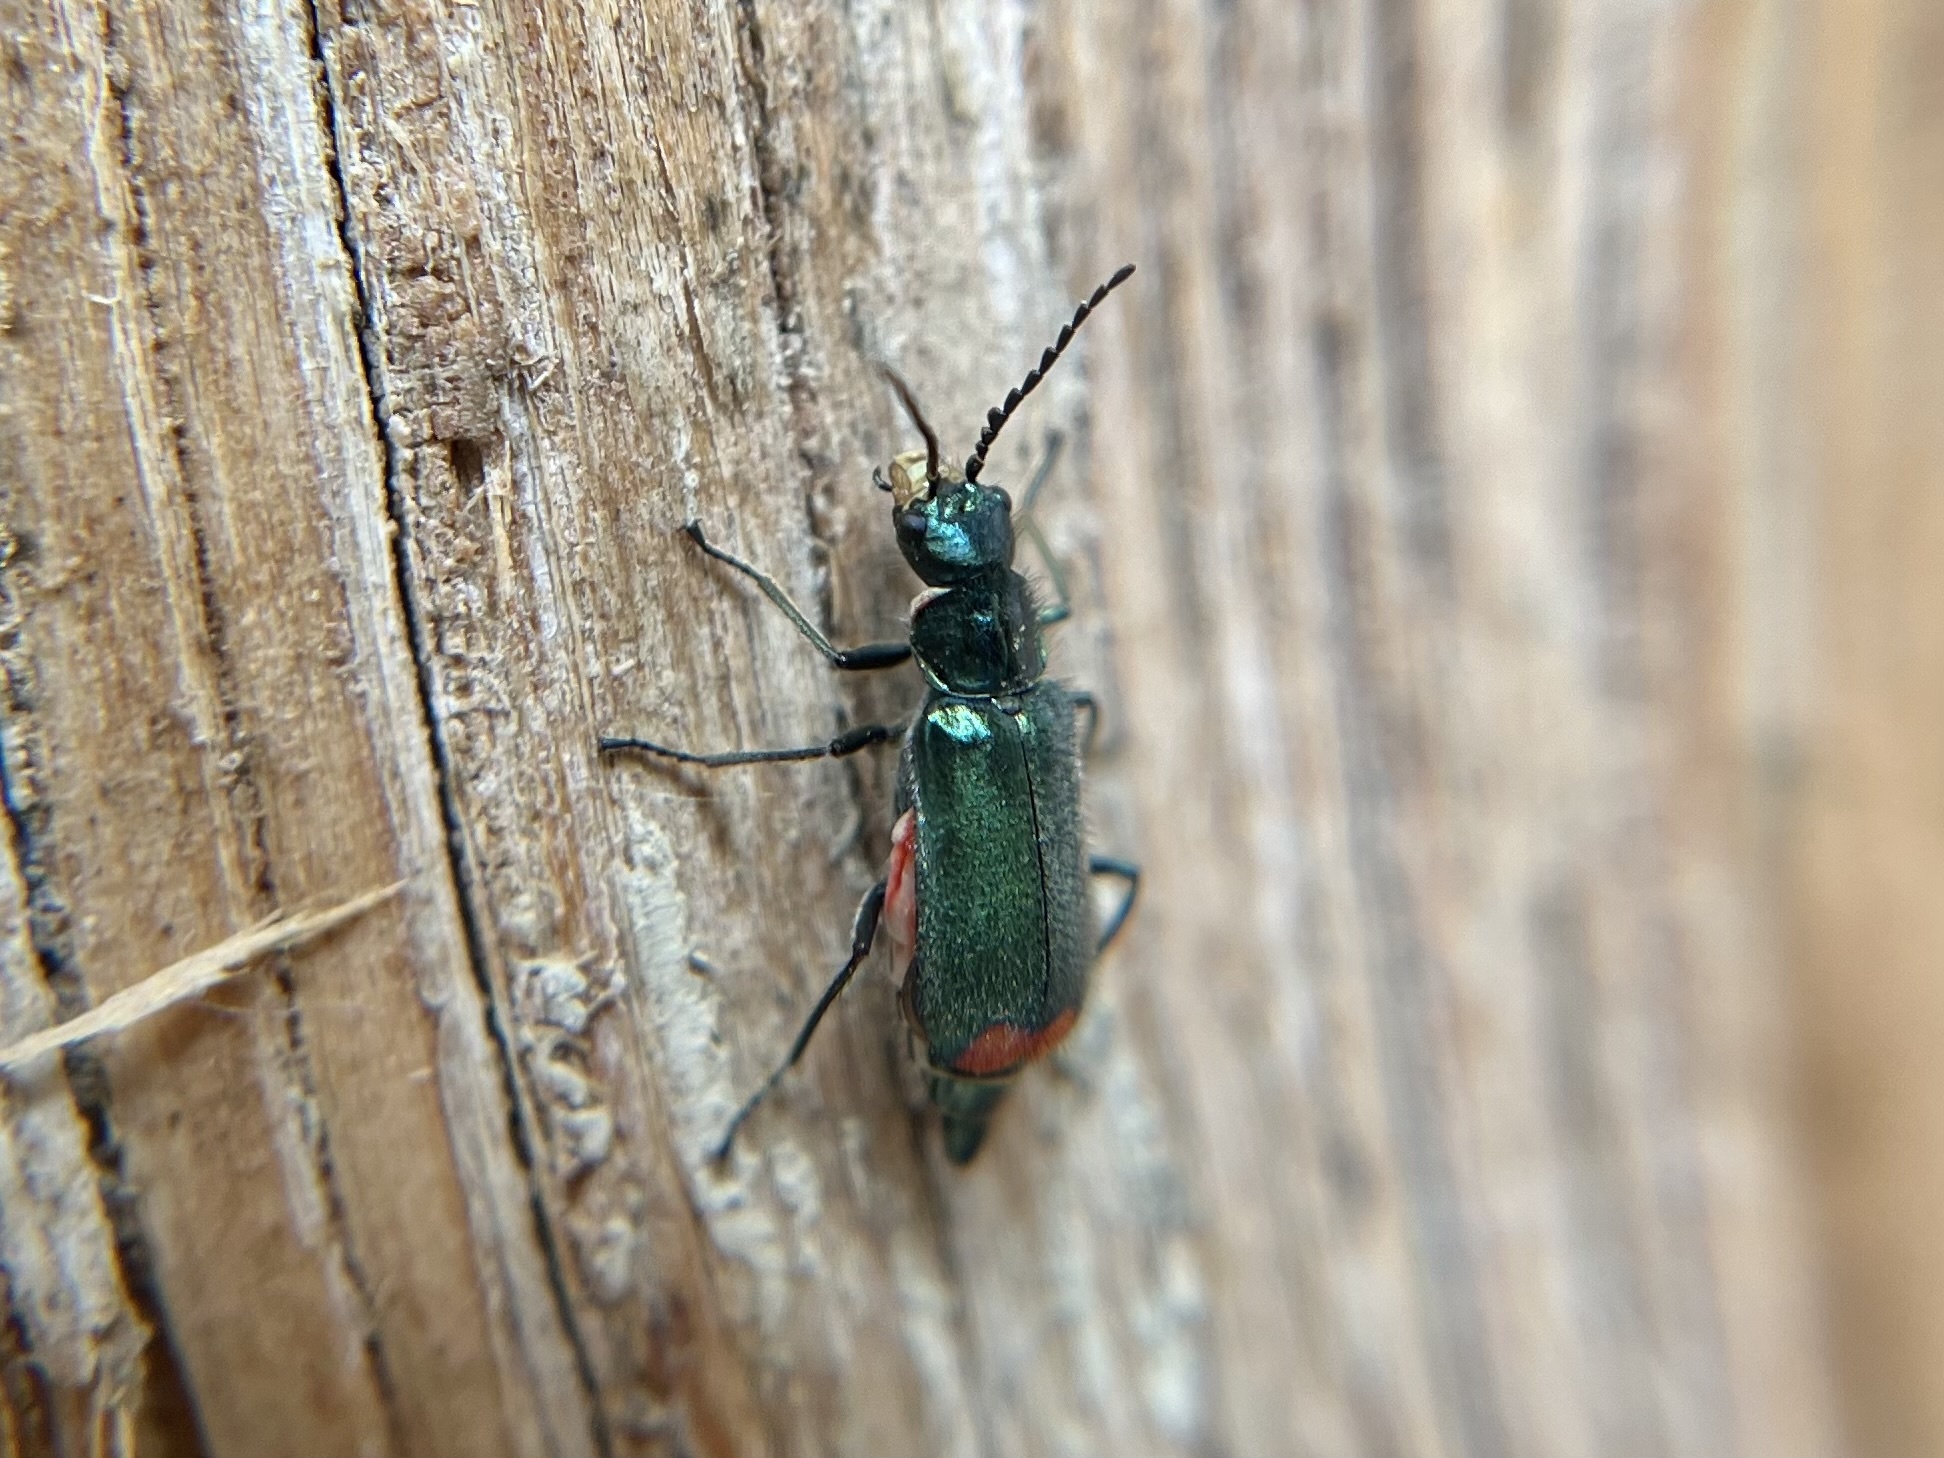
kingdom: Animalia
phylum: Arthropoda
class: Insecta
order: Coleoptera
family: Melyridae
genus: Malachius
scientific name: Malachius bipustulatus
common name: Malachite beetle
